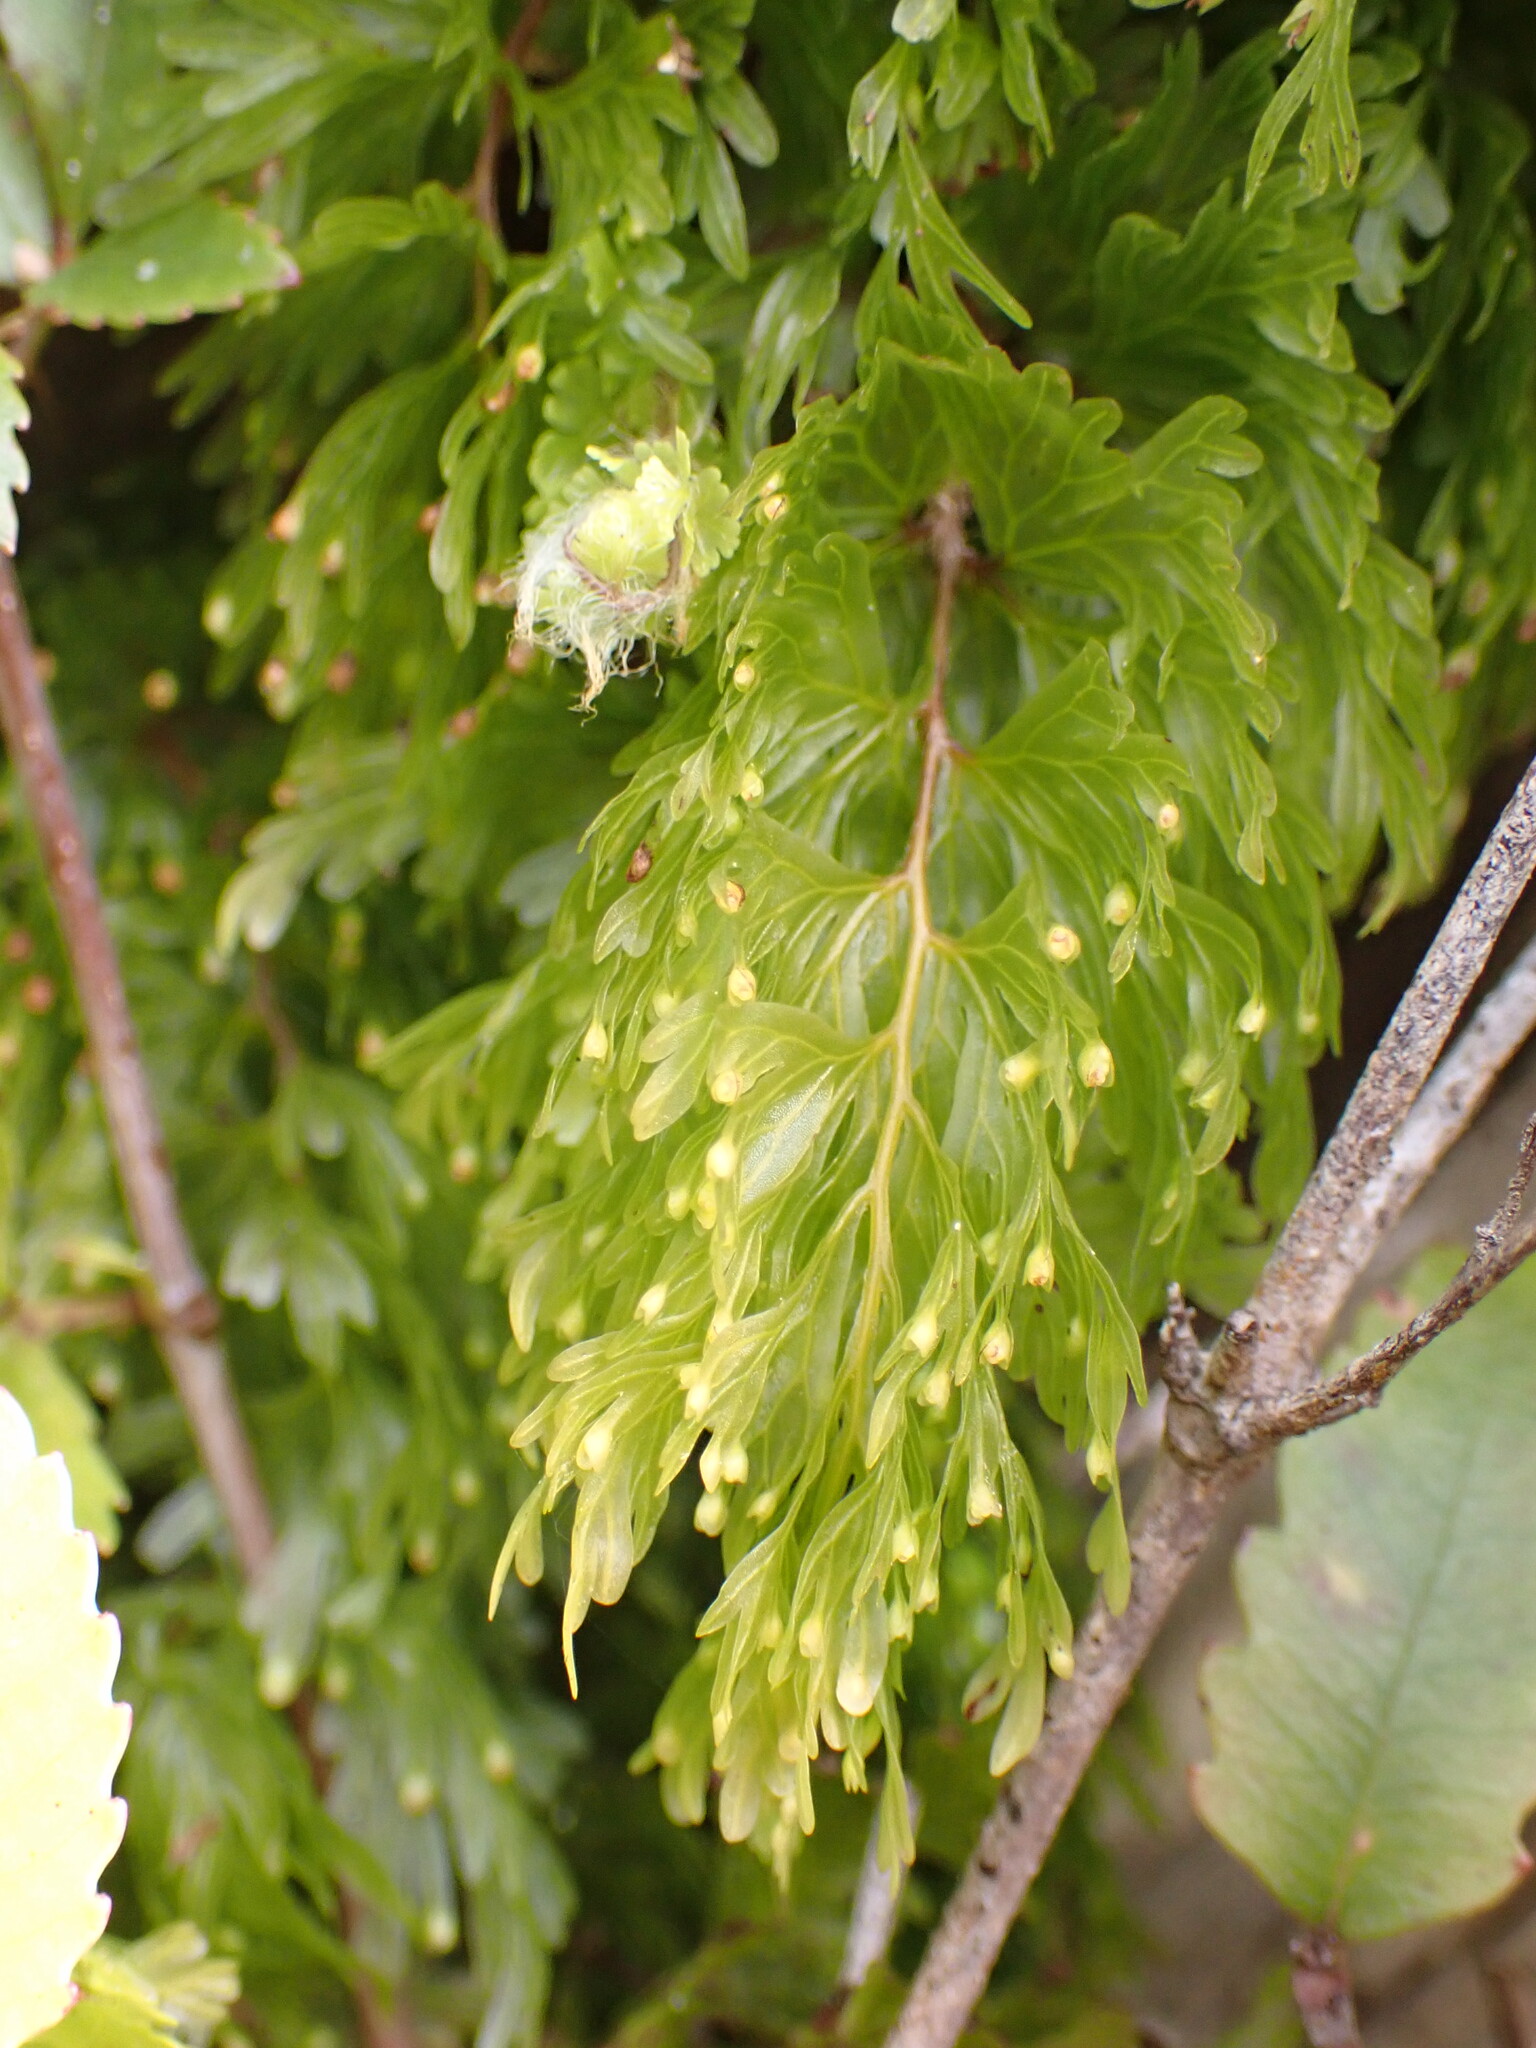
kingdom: Plantae
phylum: Tracheophyta
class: Polypodiopsida
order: Hymenophyllales
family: Hymenophyllaceae
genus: Hymenophyllum
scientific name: Hymenophyllum flabellatum
